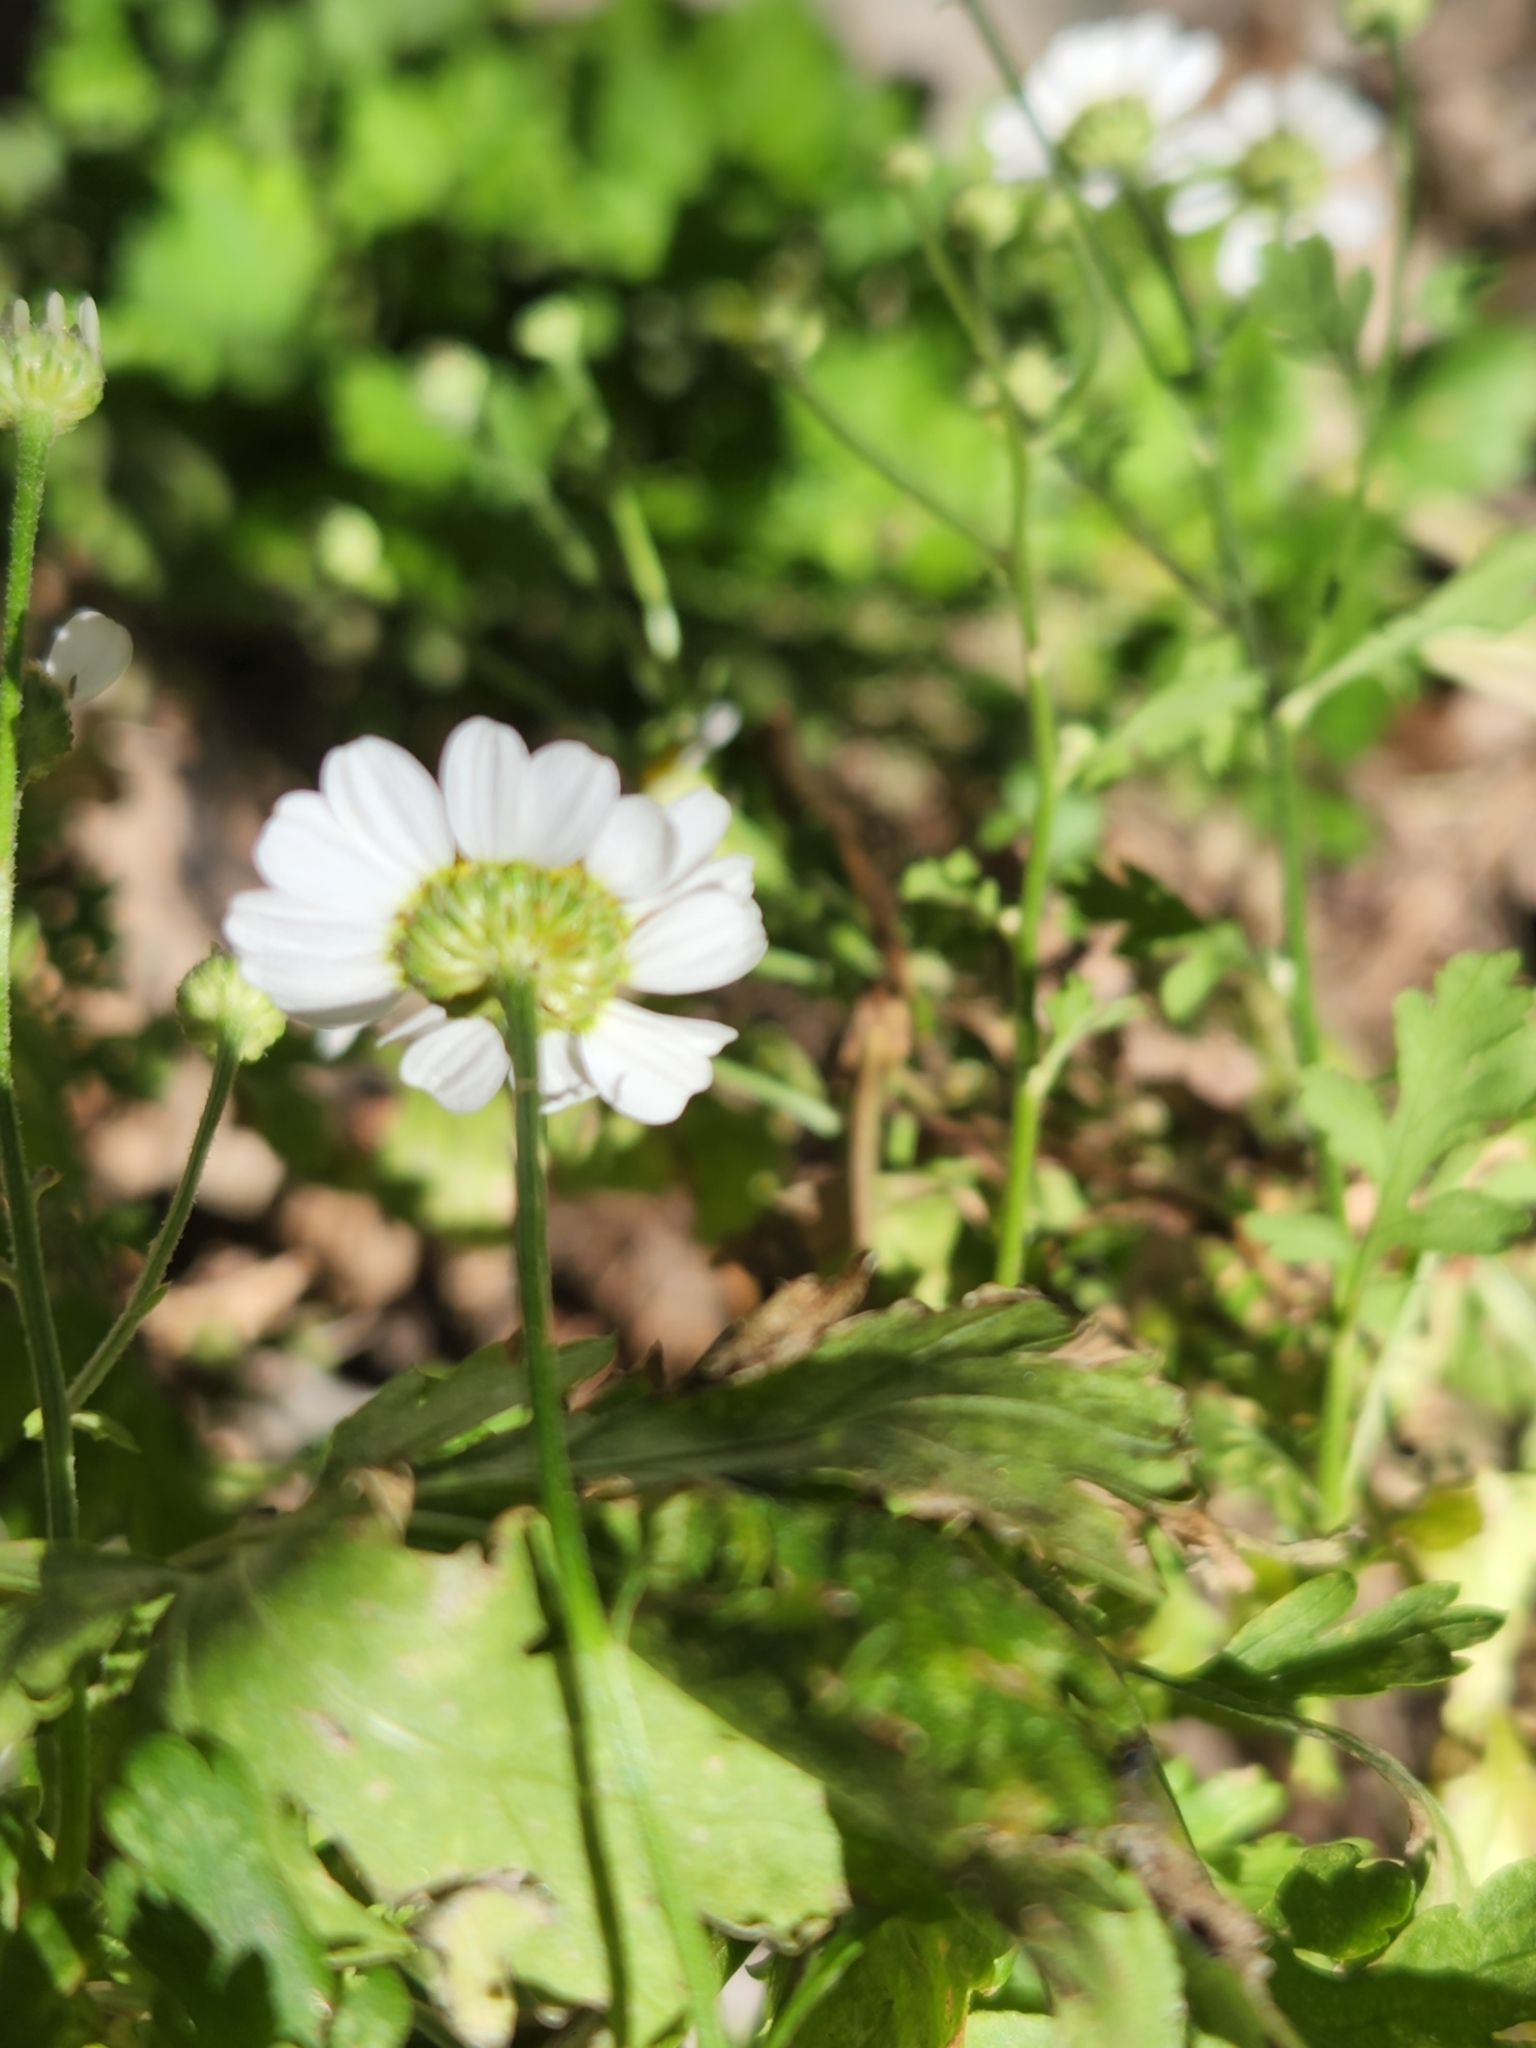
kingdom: Plantae
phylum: Tracheophyta
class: Magnoliopsida
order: Asterales
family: Asteraceae
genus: Tanacetum
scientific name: Tanacetum parthenium
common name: Feverfew
